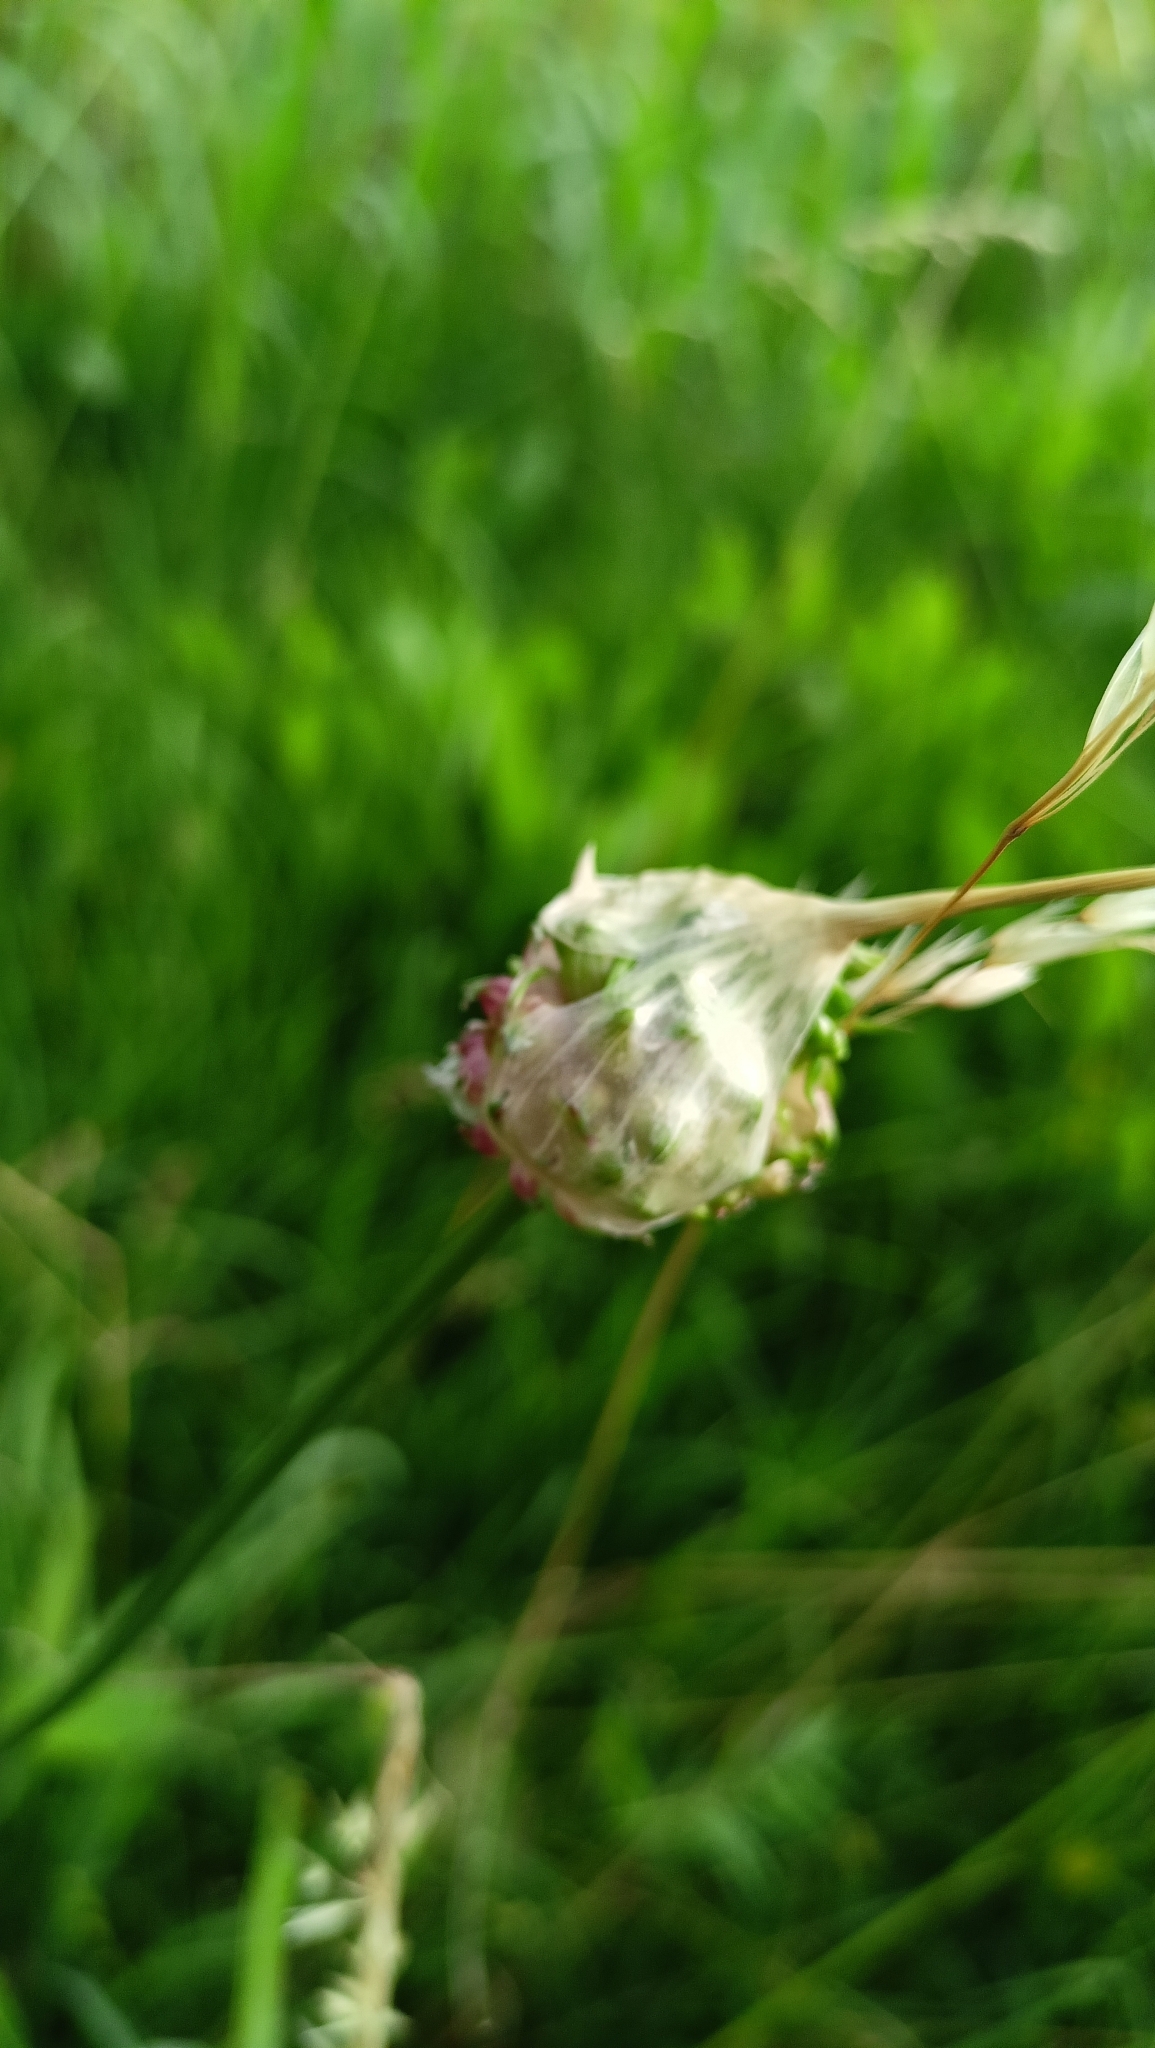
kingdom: Plantae
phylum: Tracheophyta
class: Liliopsida
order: Asparagales
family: Amaryllidaceae
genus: Allium
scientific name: Allium vineale
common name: Crow garlic
